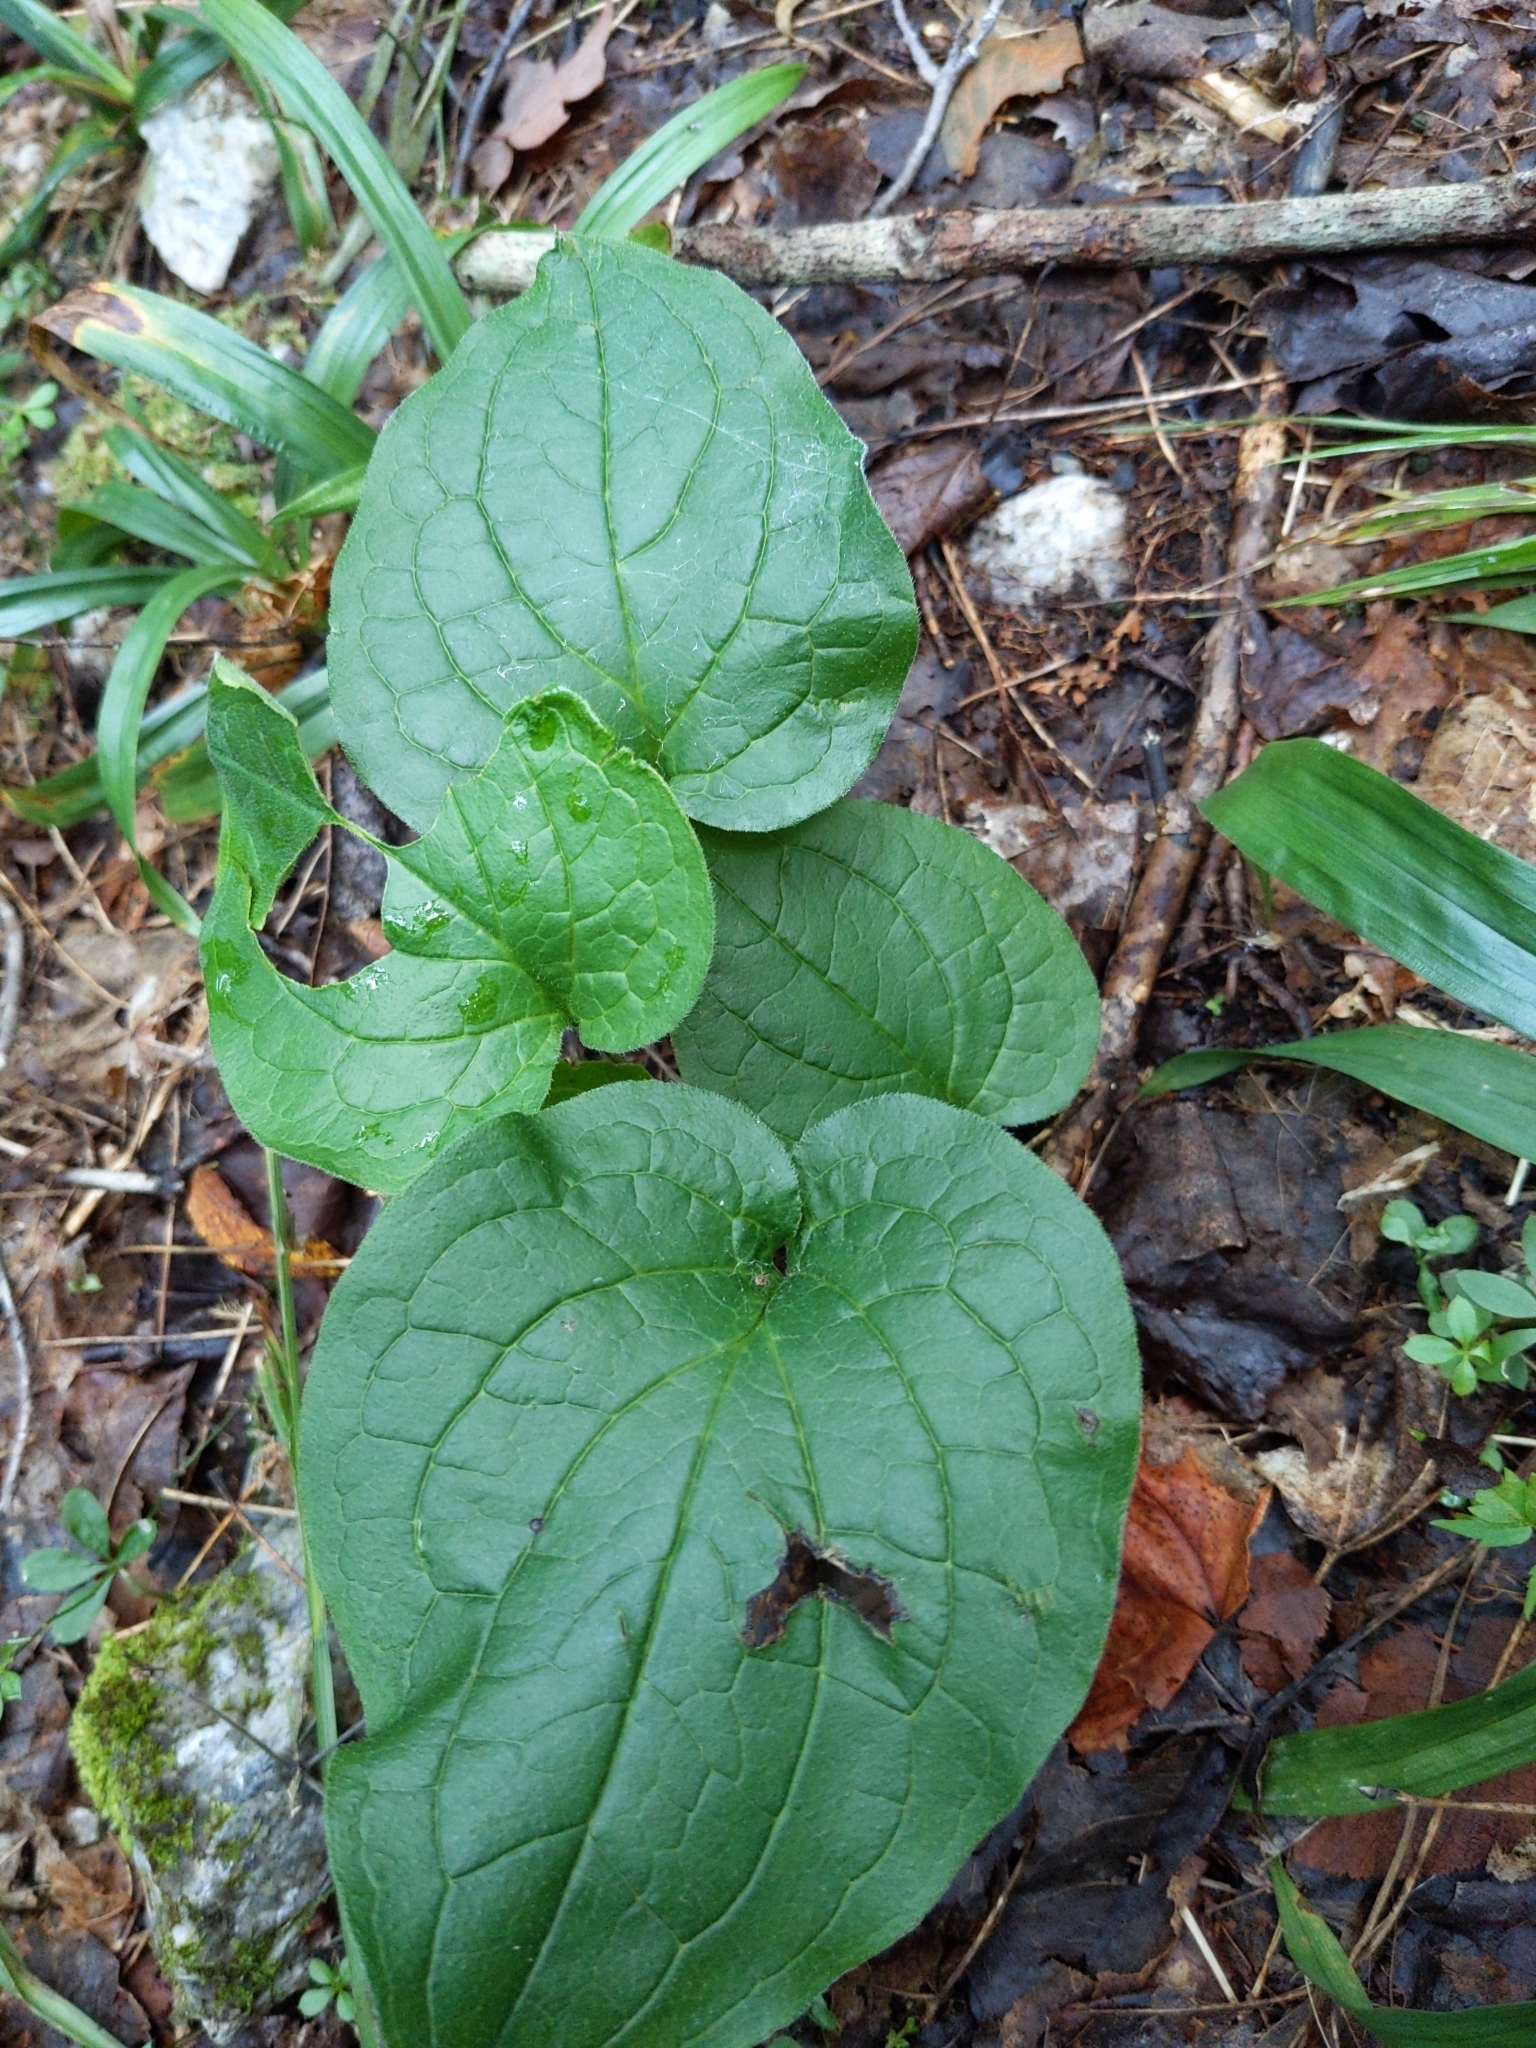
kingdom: Plantae
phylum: Tracheophyta
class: Magnoliopsida
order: Boraginales
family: Boraginaceae
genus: Hackelia
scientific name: Hackelia virginiana
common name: Beggar's-lice
